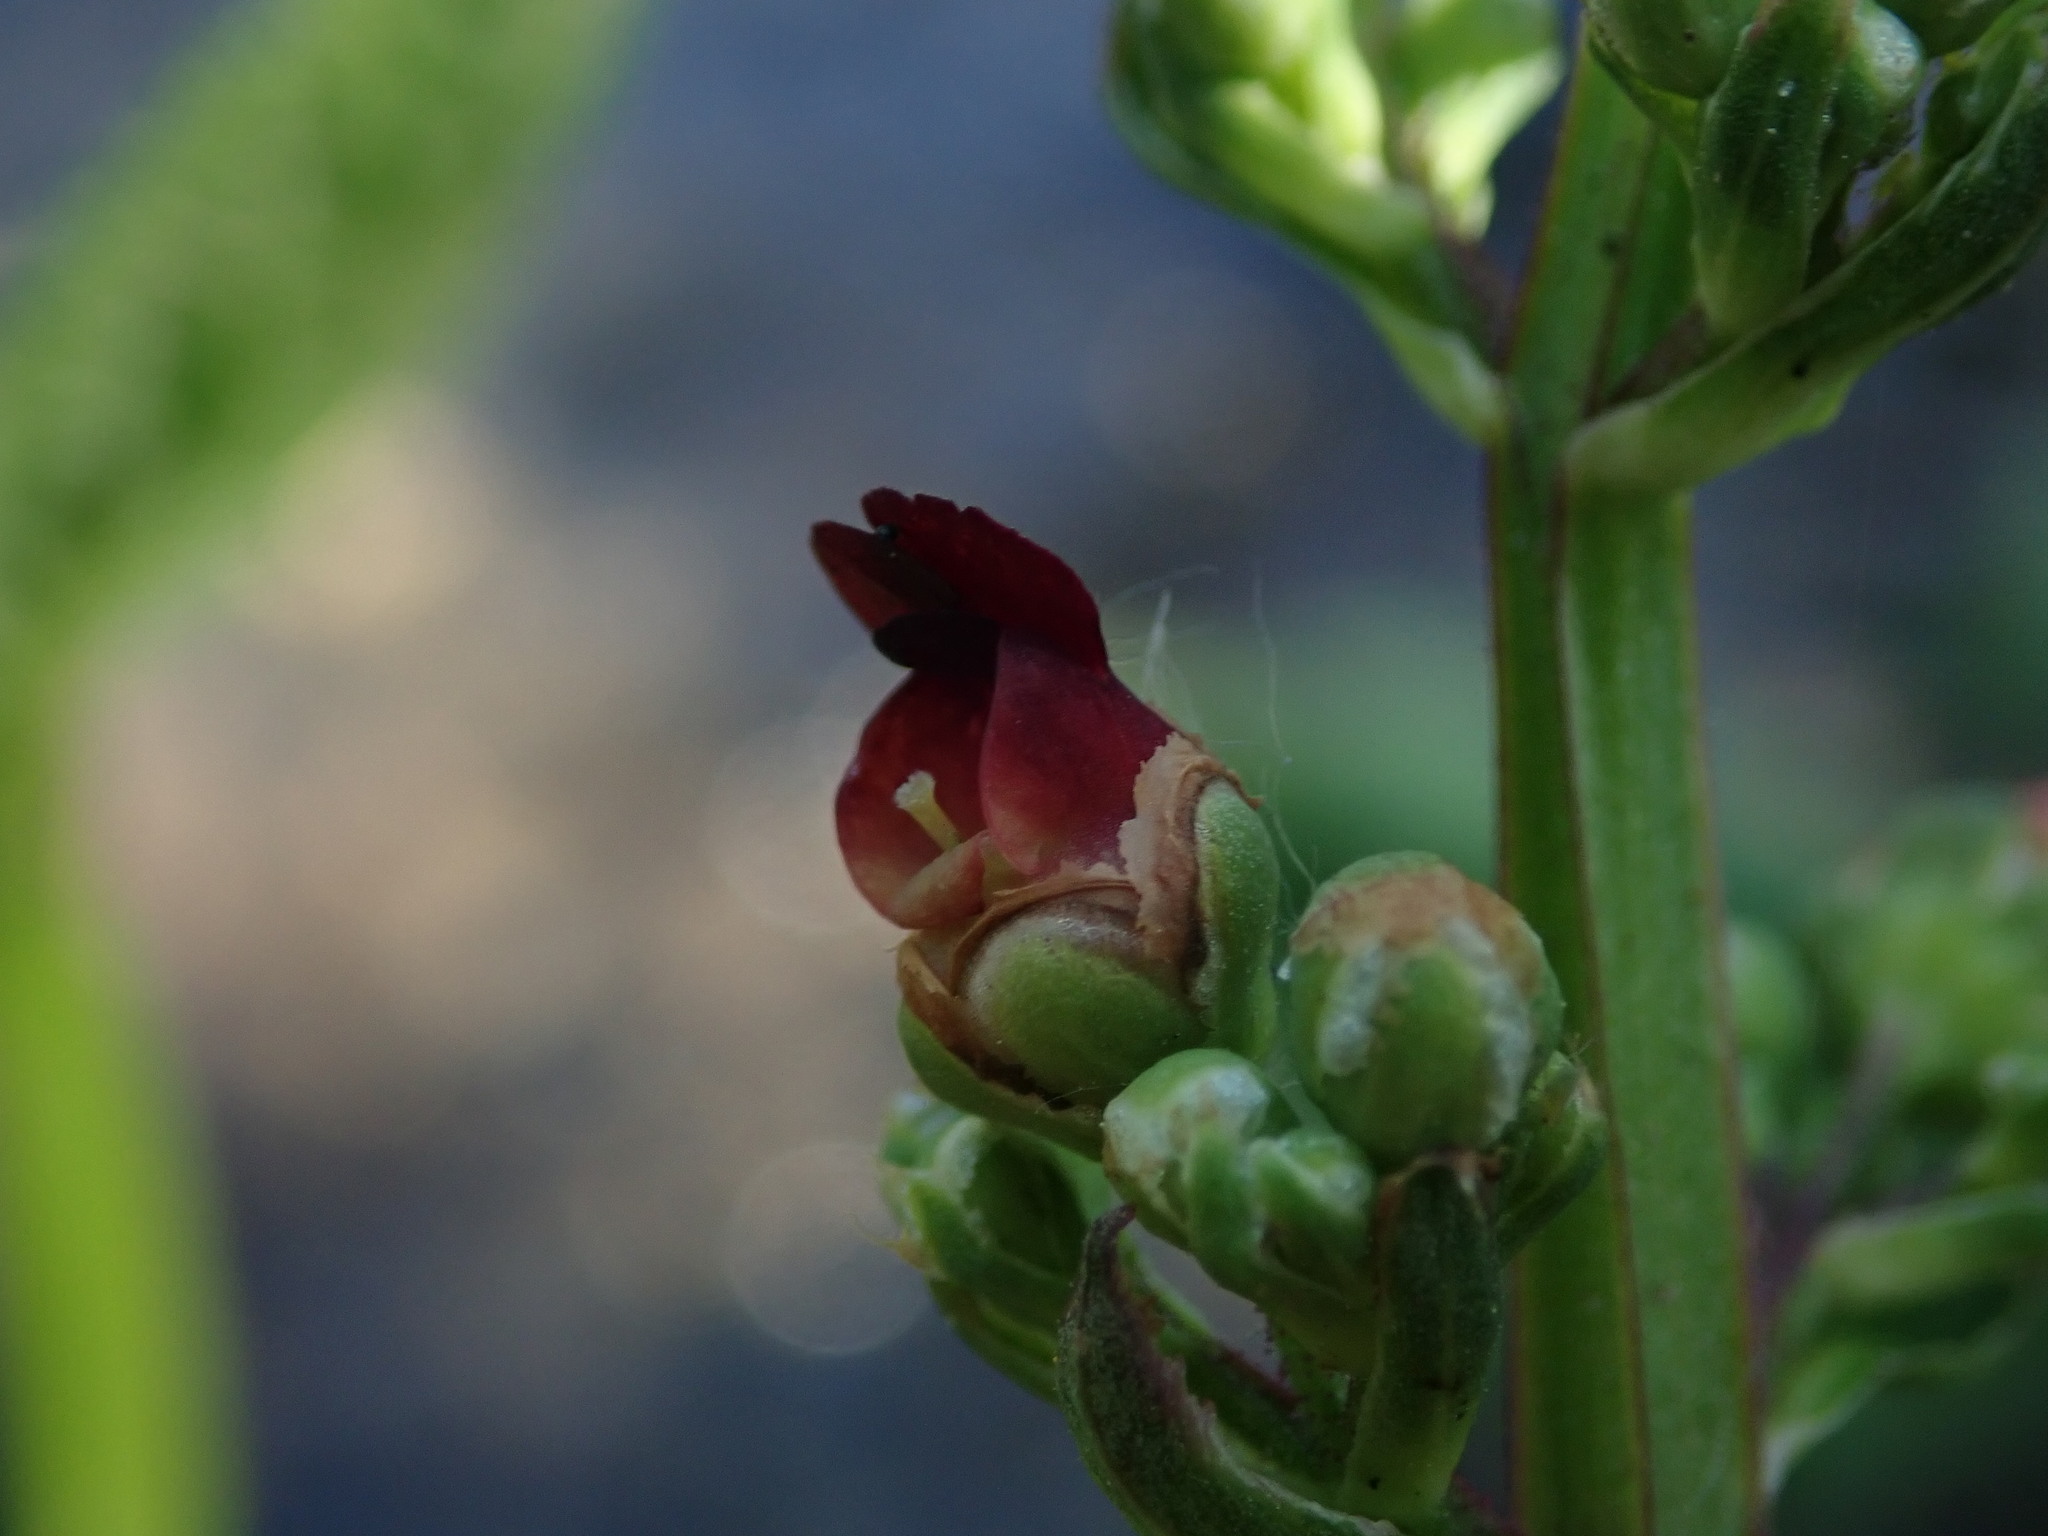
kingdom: Plantae
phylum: Tracheophyta
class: Magnoliopsida
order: Lamiales
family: Scrophulariaceae
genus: Scrophularia
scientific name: Scrophularia auriculata
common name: Water betony
